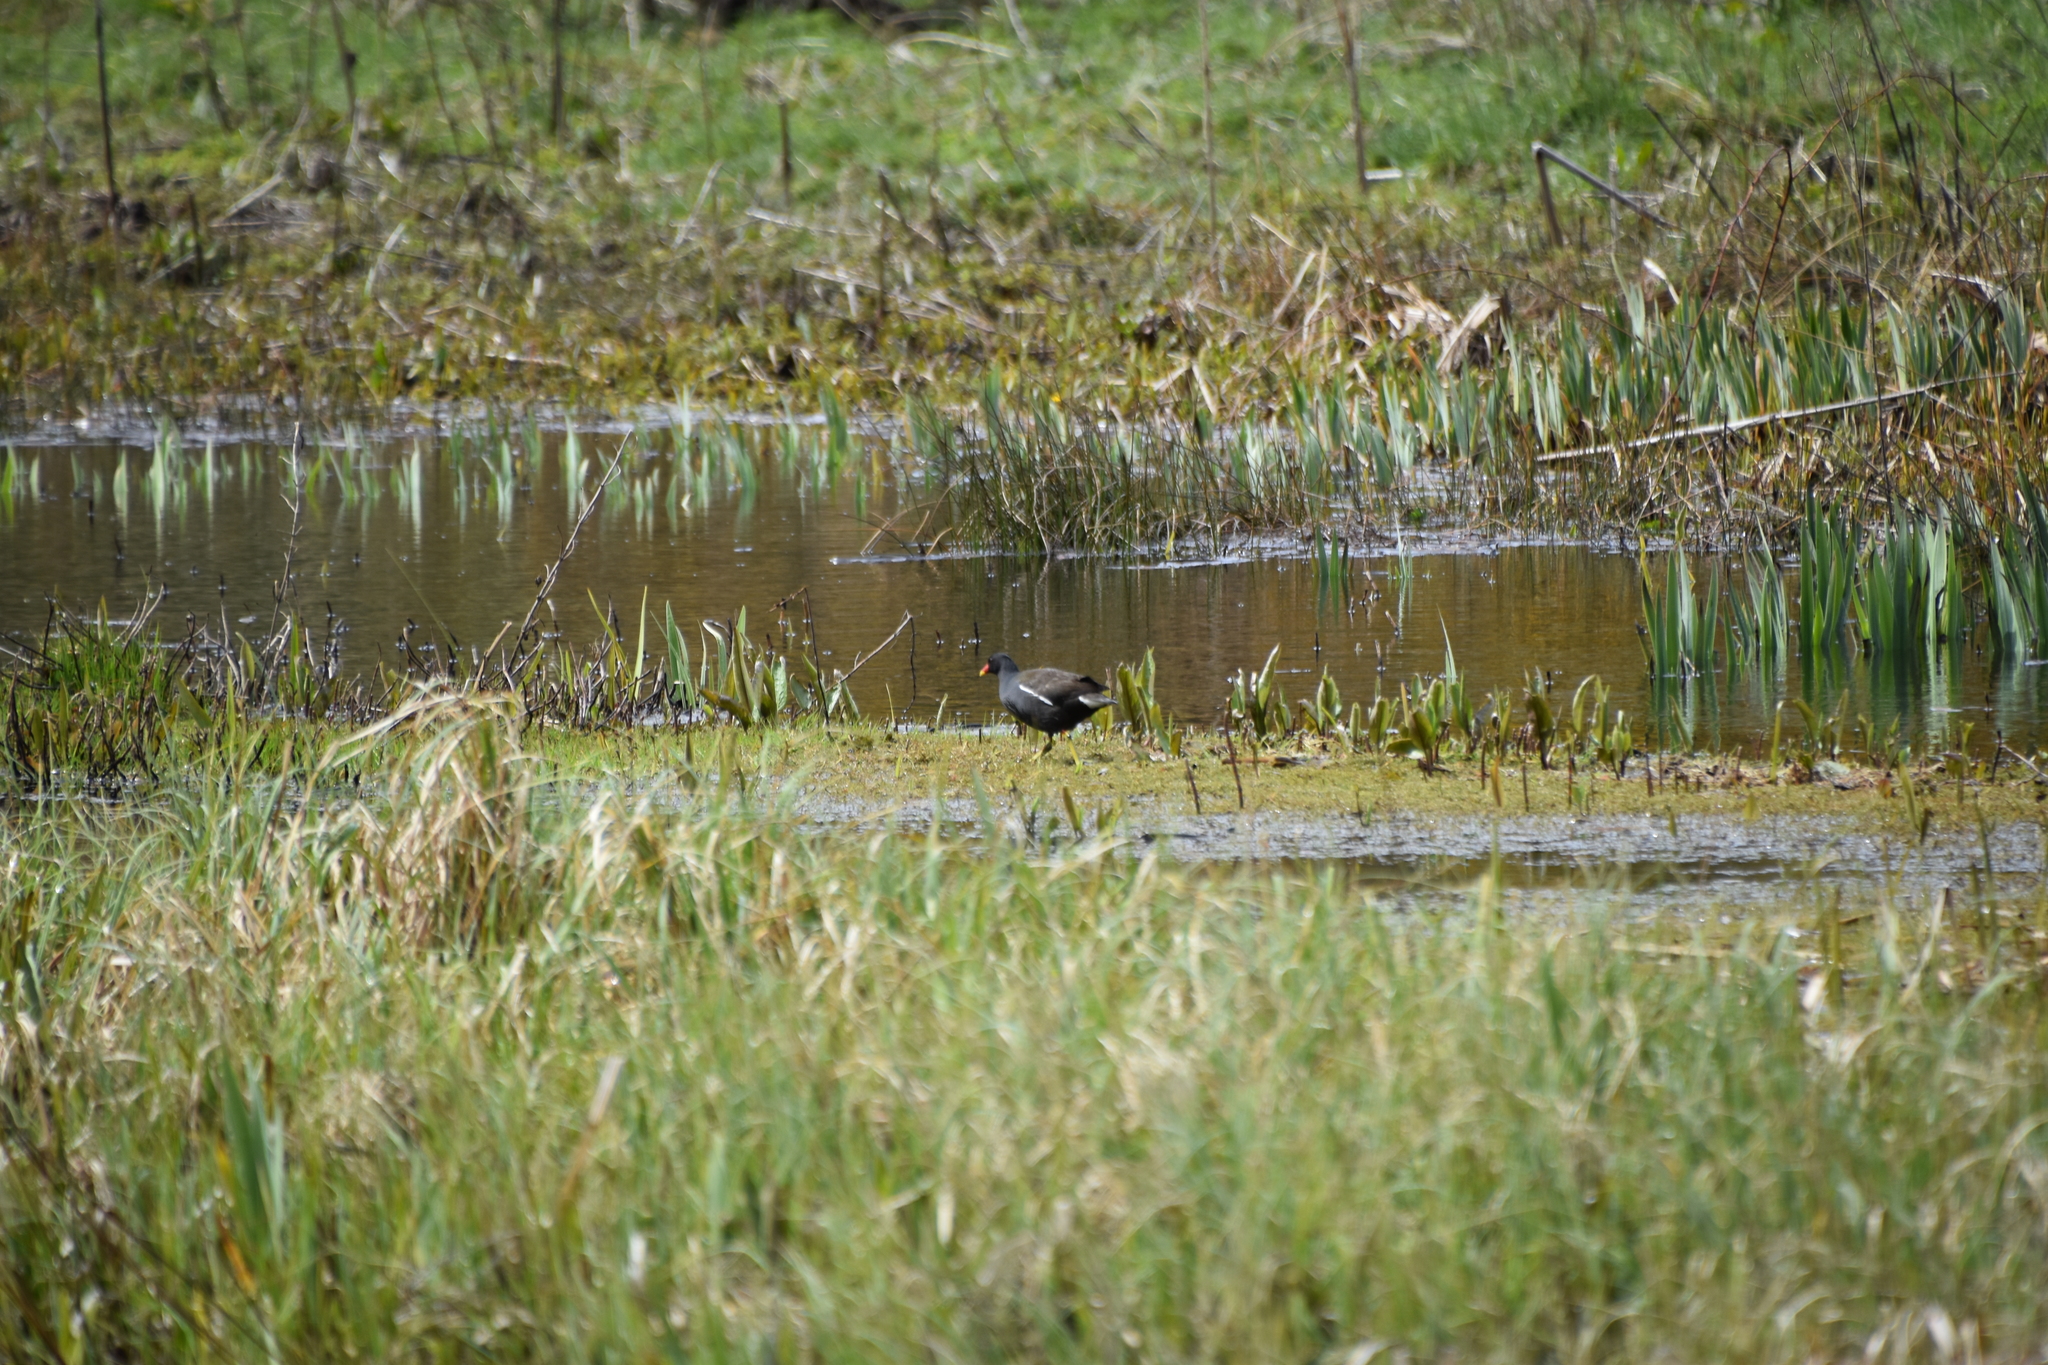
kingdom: Animalia
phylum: Chordata
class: Aves
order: Gruiformes
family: Rallidae
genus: Gallinula
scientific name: Gallinula chloropus
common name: Common moorhen
